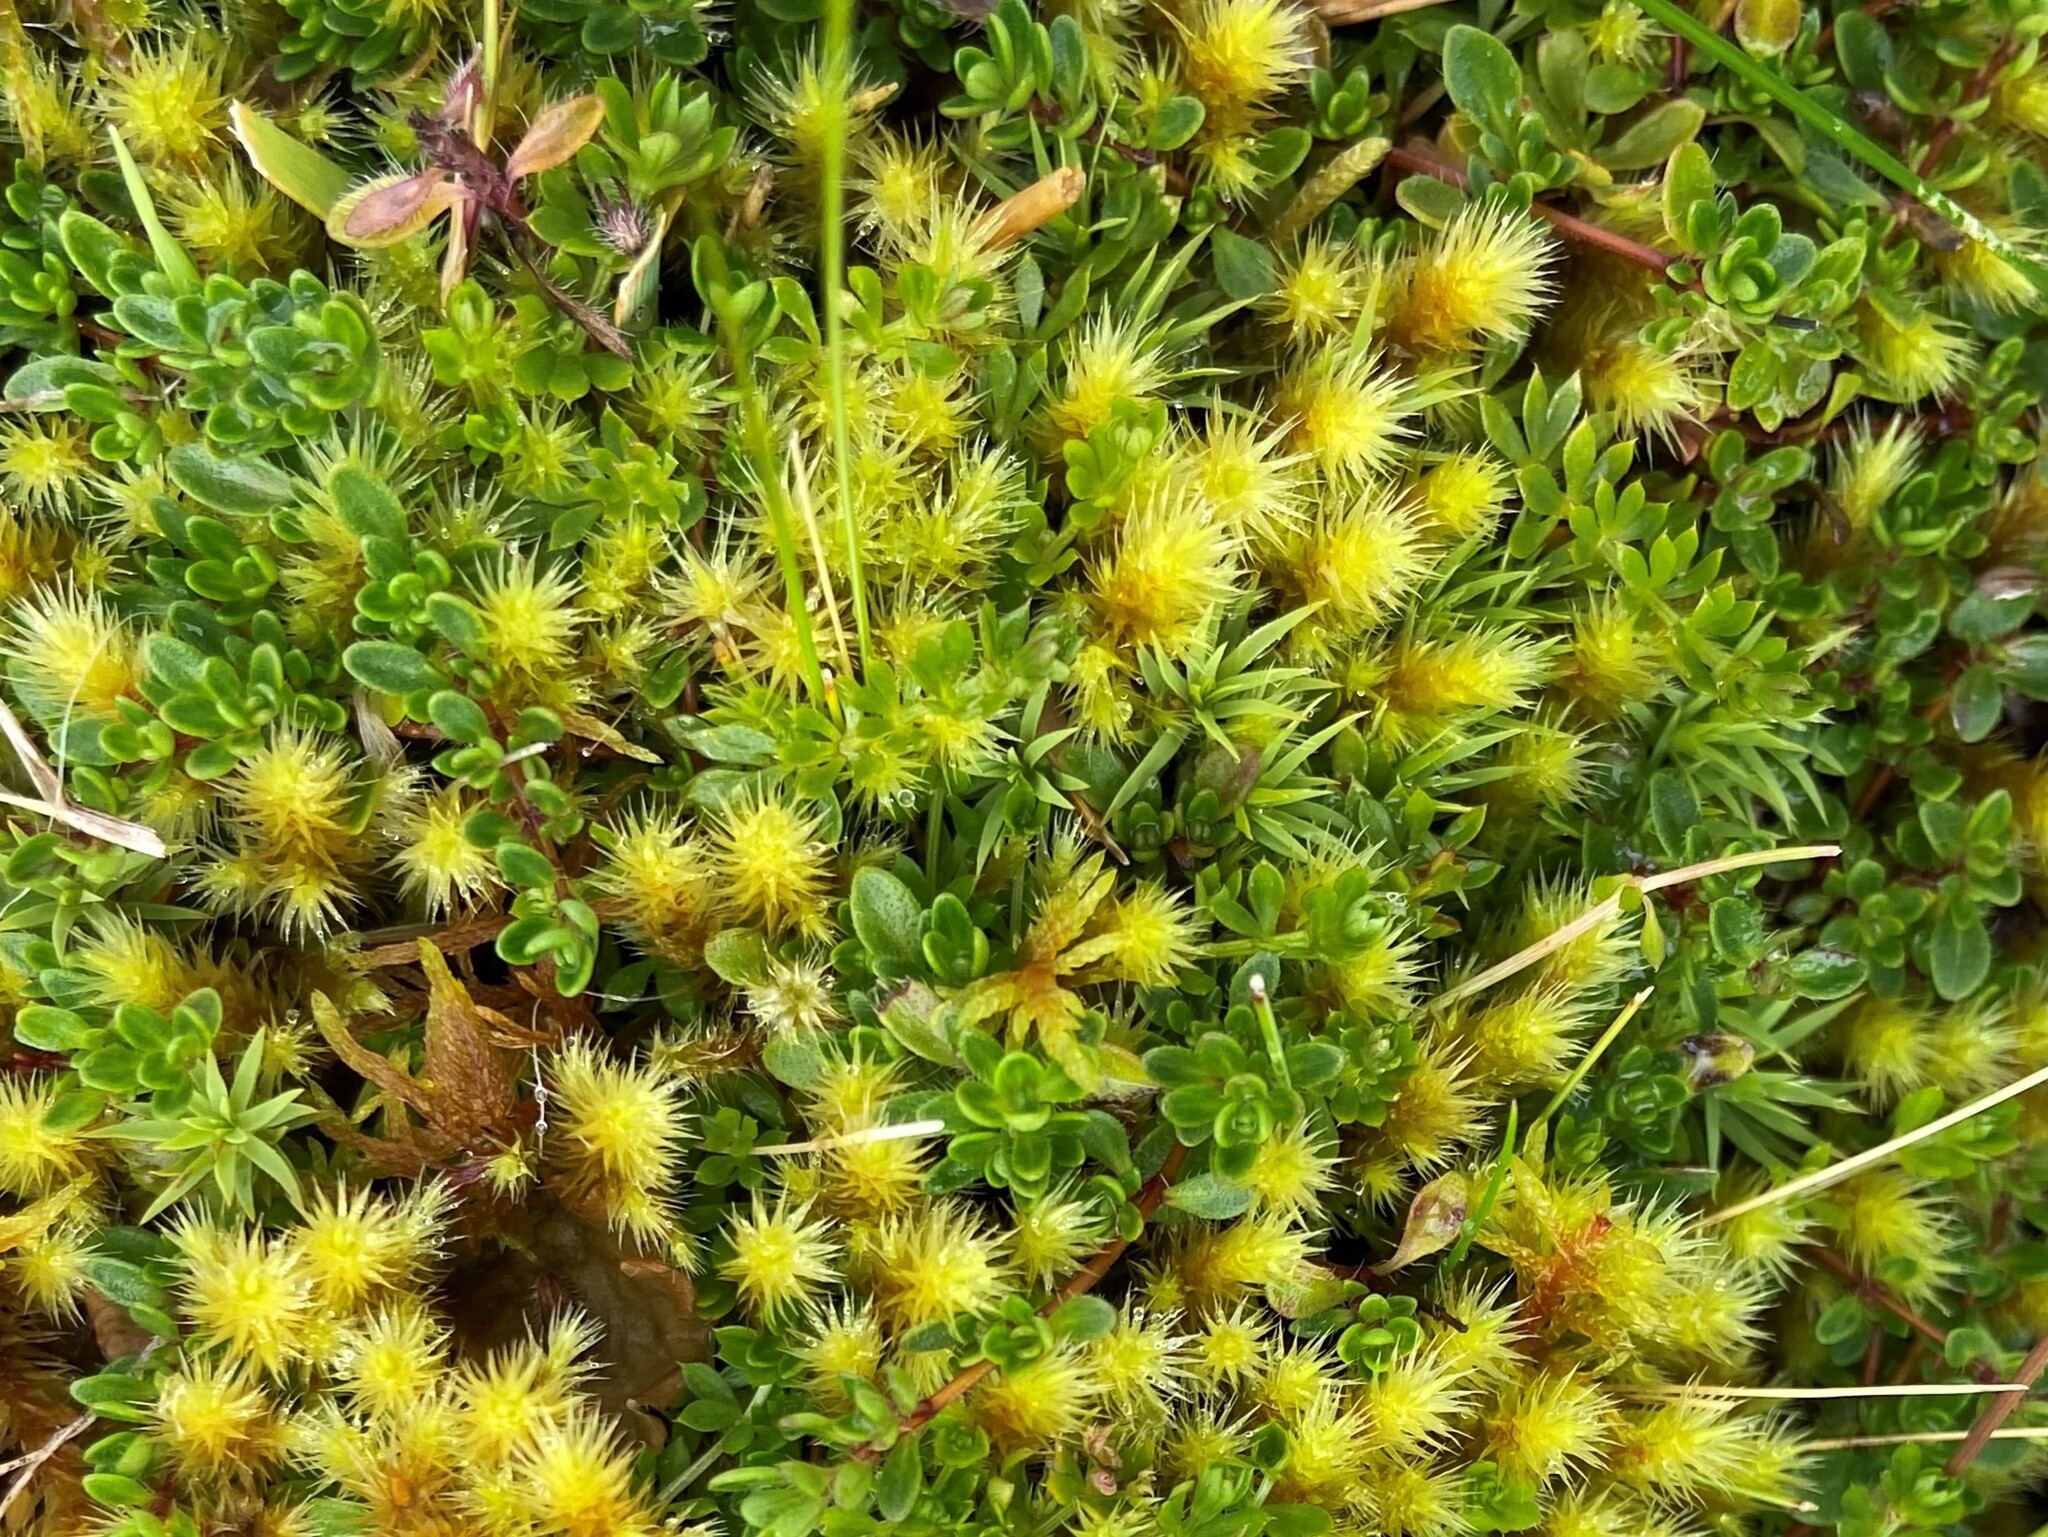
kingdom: Plantae
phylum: Tracheophyta
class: Magnoliopsida
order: Lamiales
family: Lamiaceae
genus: Thymus
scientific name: Thymus praecox
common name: Wild thyme
